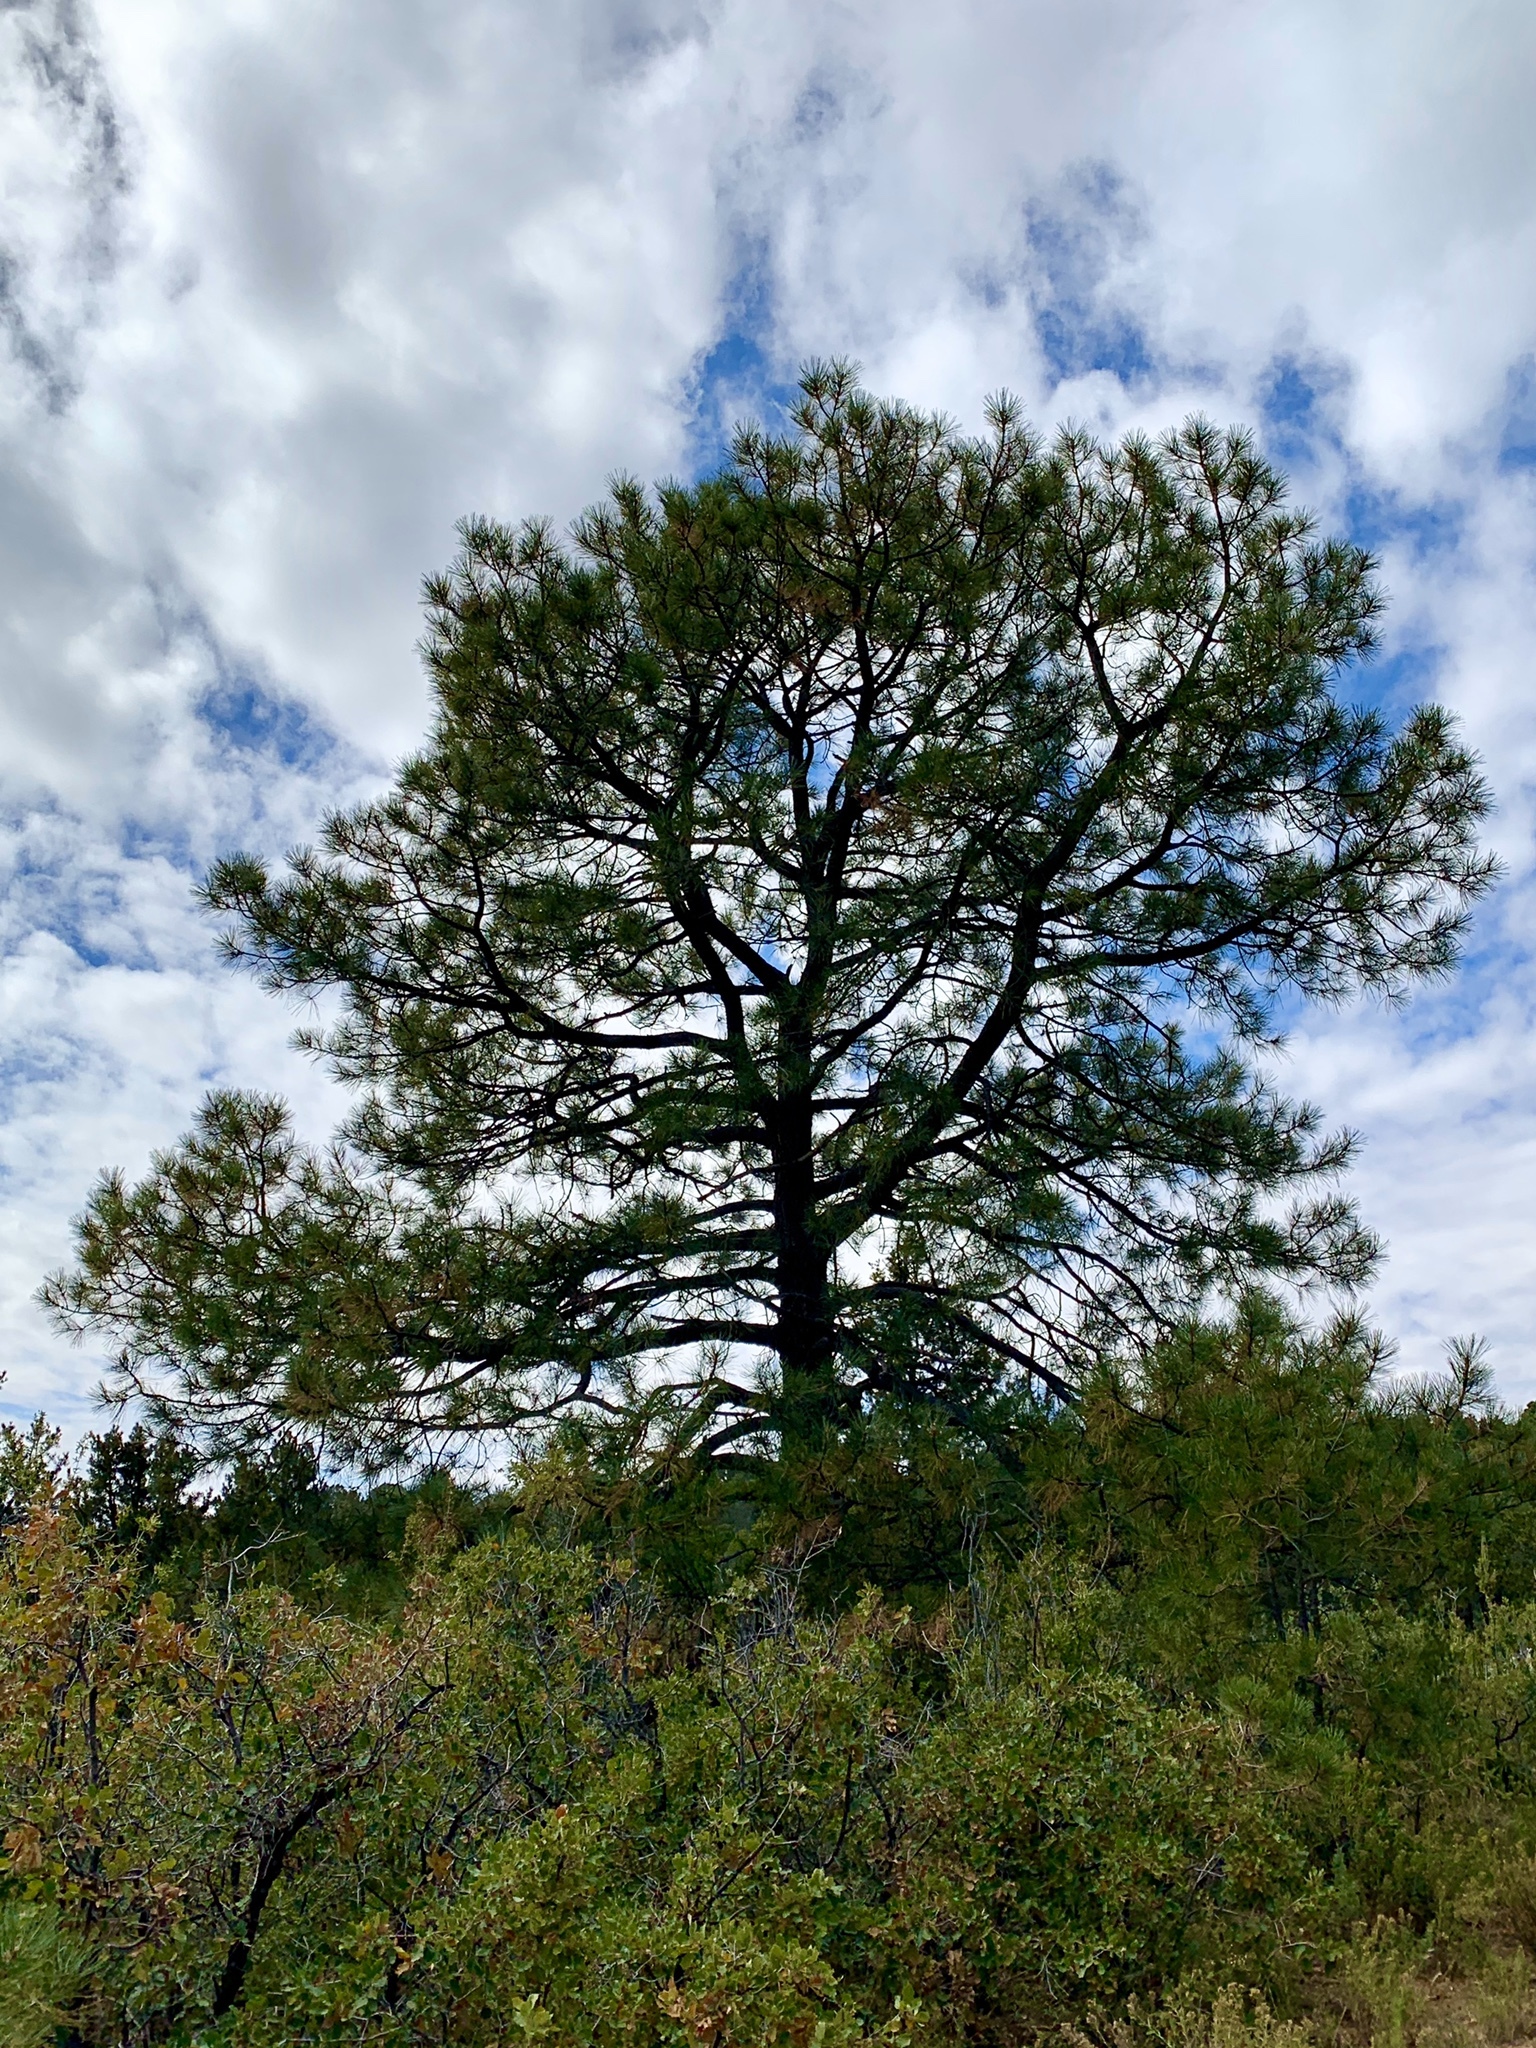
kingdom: Plantae
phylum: Tracheophyta
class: Pinopsida
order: Pinales
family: Pinaceae
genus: Pinus
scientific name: Pinus ponderosa
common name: Western yellow-pine
